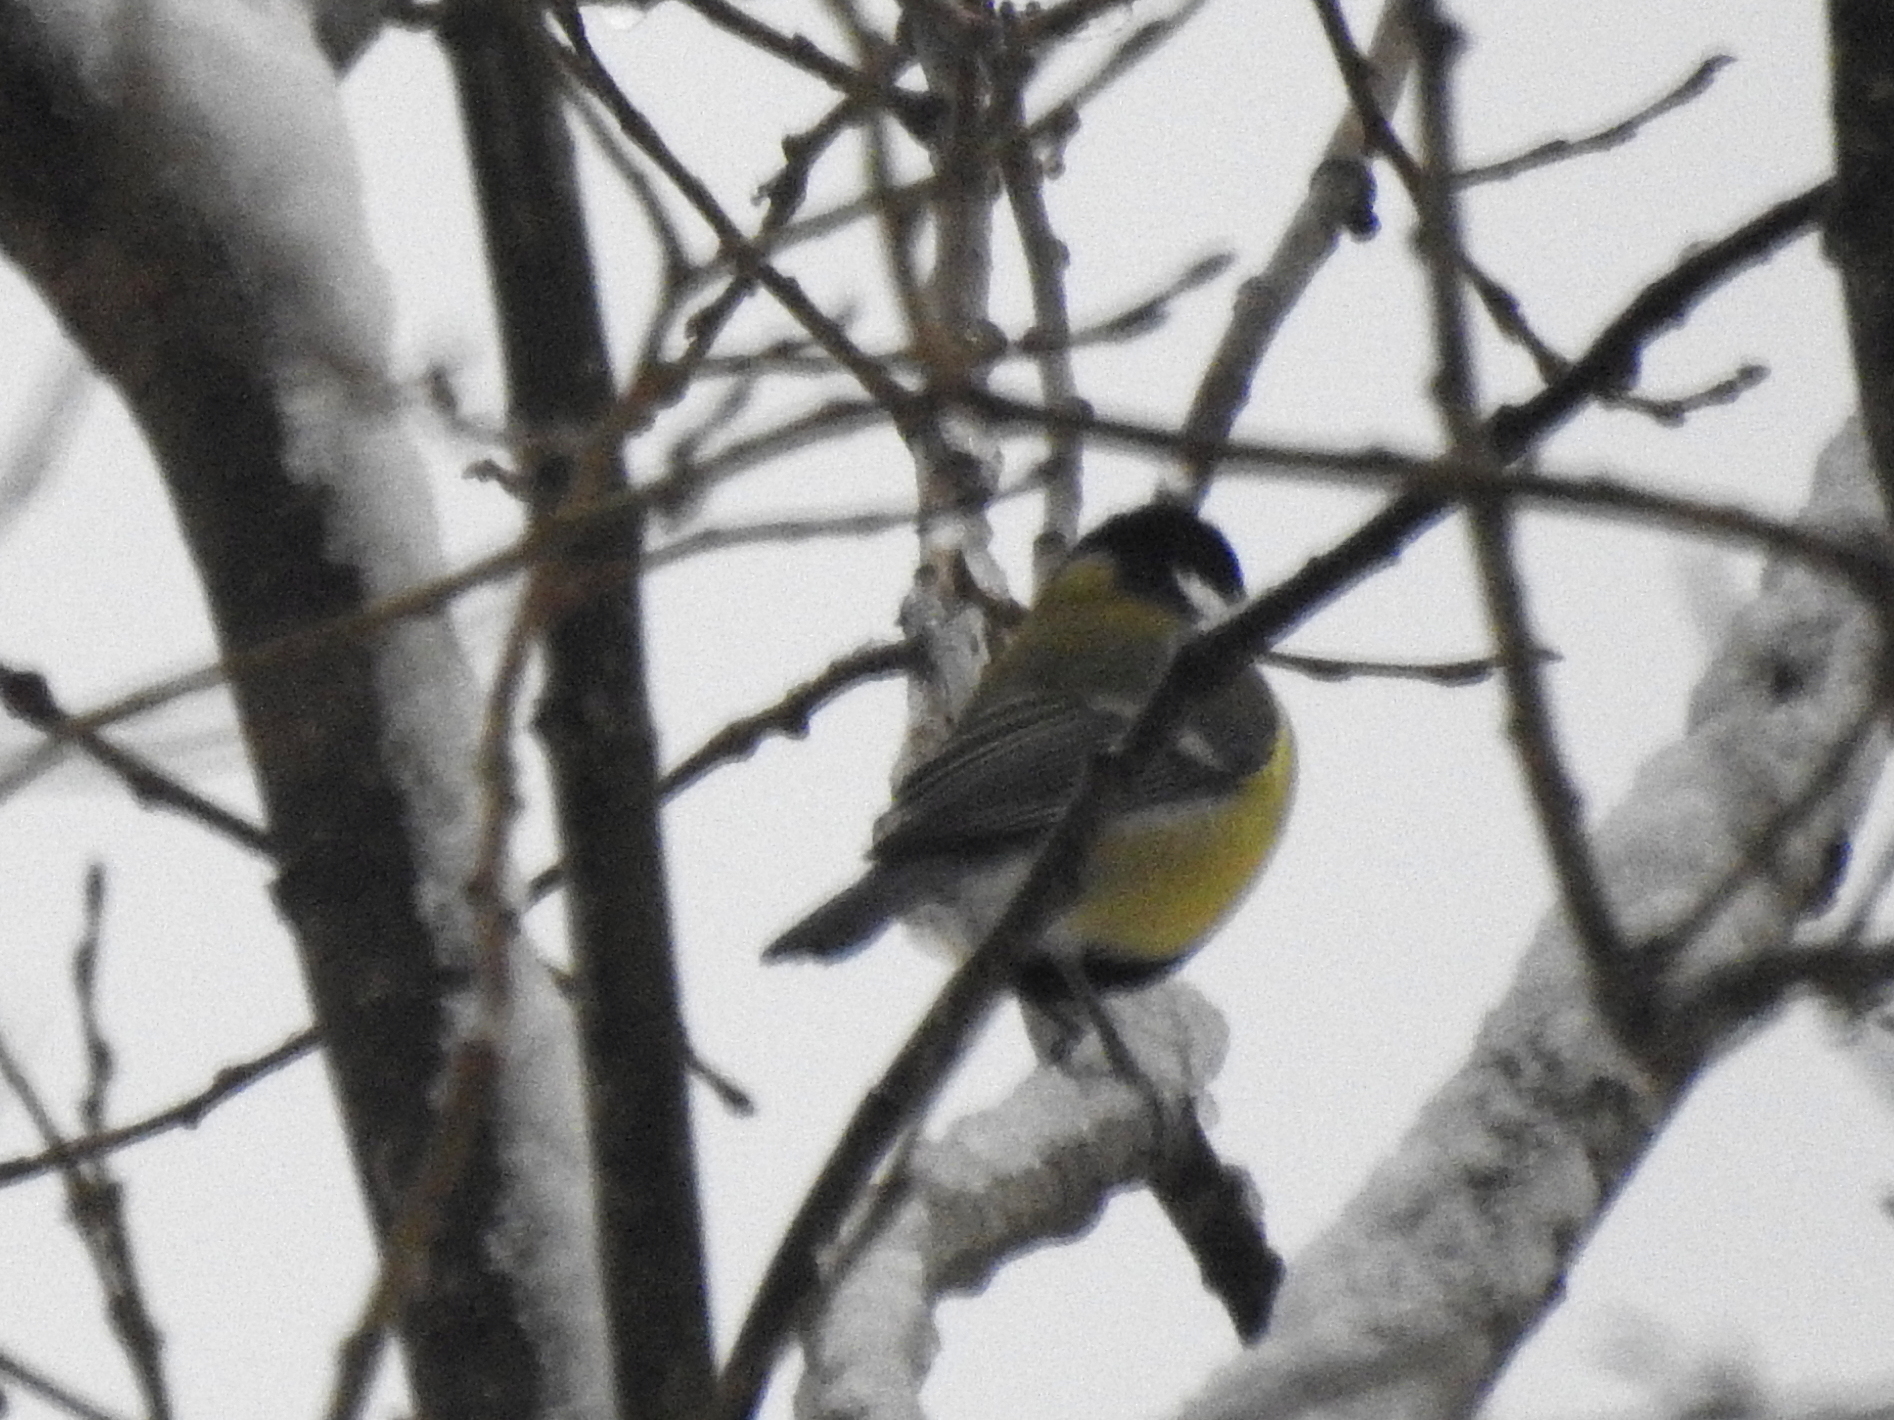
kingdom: Animalia
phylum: Chordata
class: Aves
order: Passeriformes
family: Paridae
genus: Parus
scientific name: Parus major
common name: Great tit
